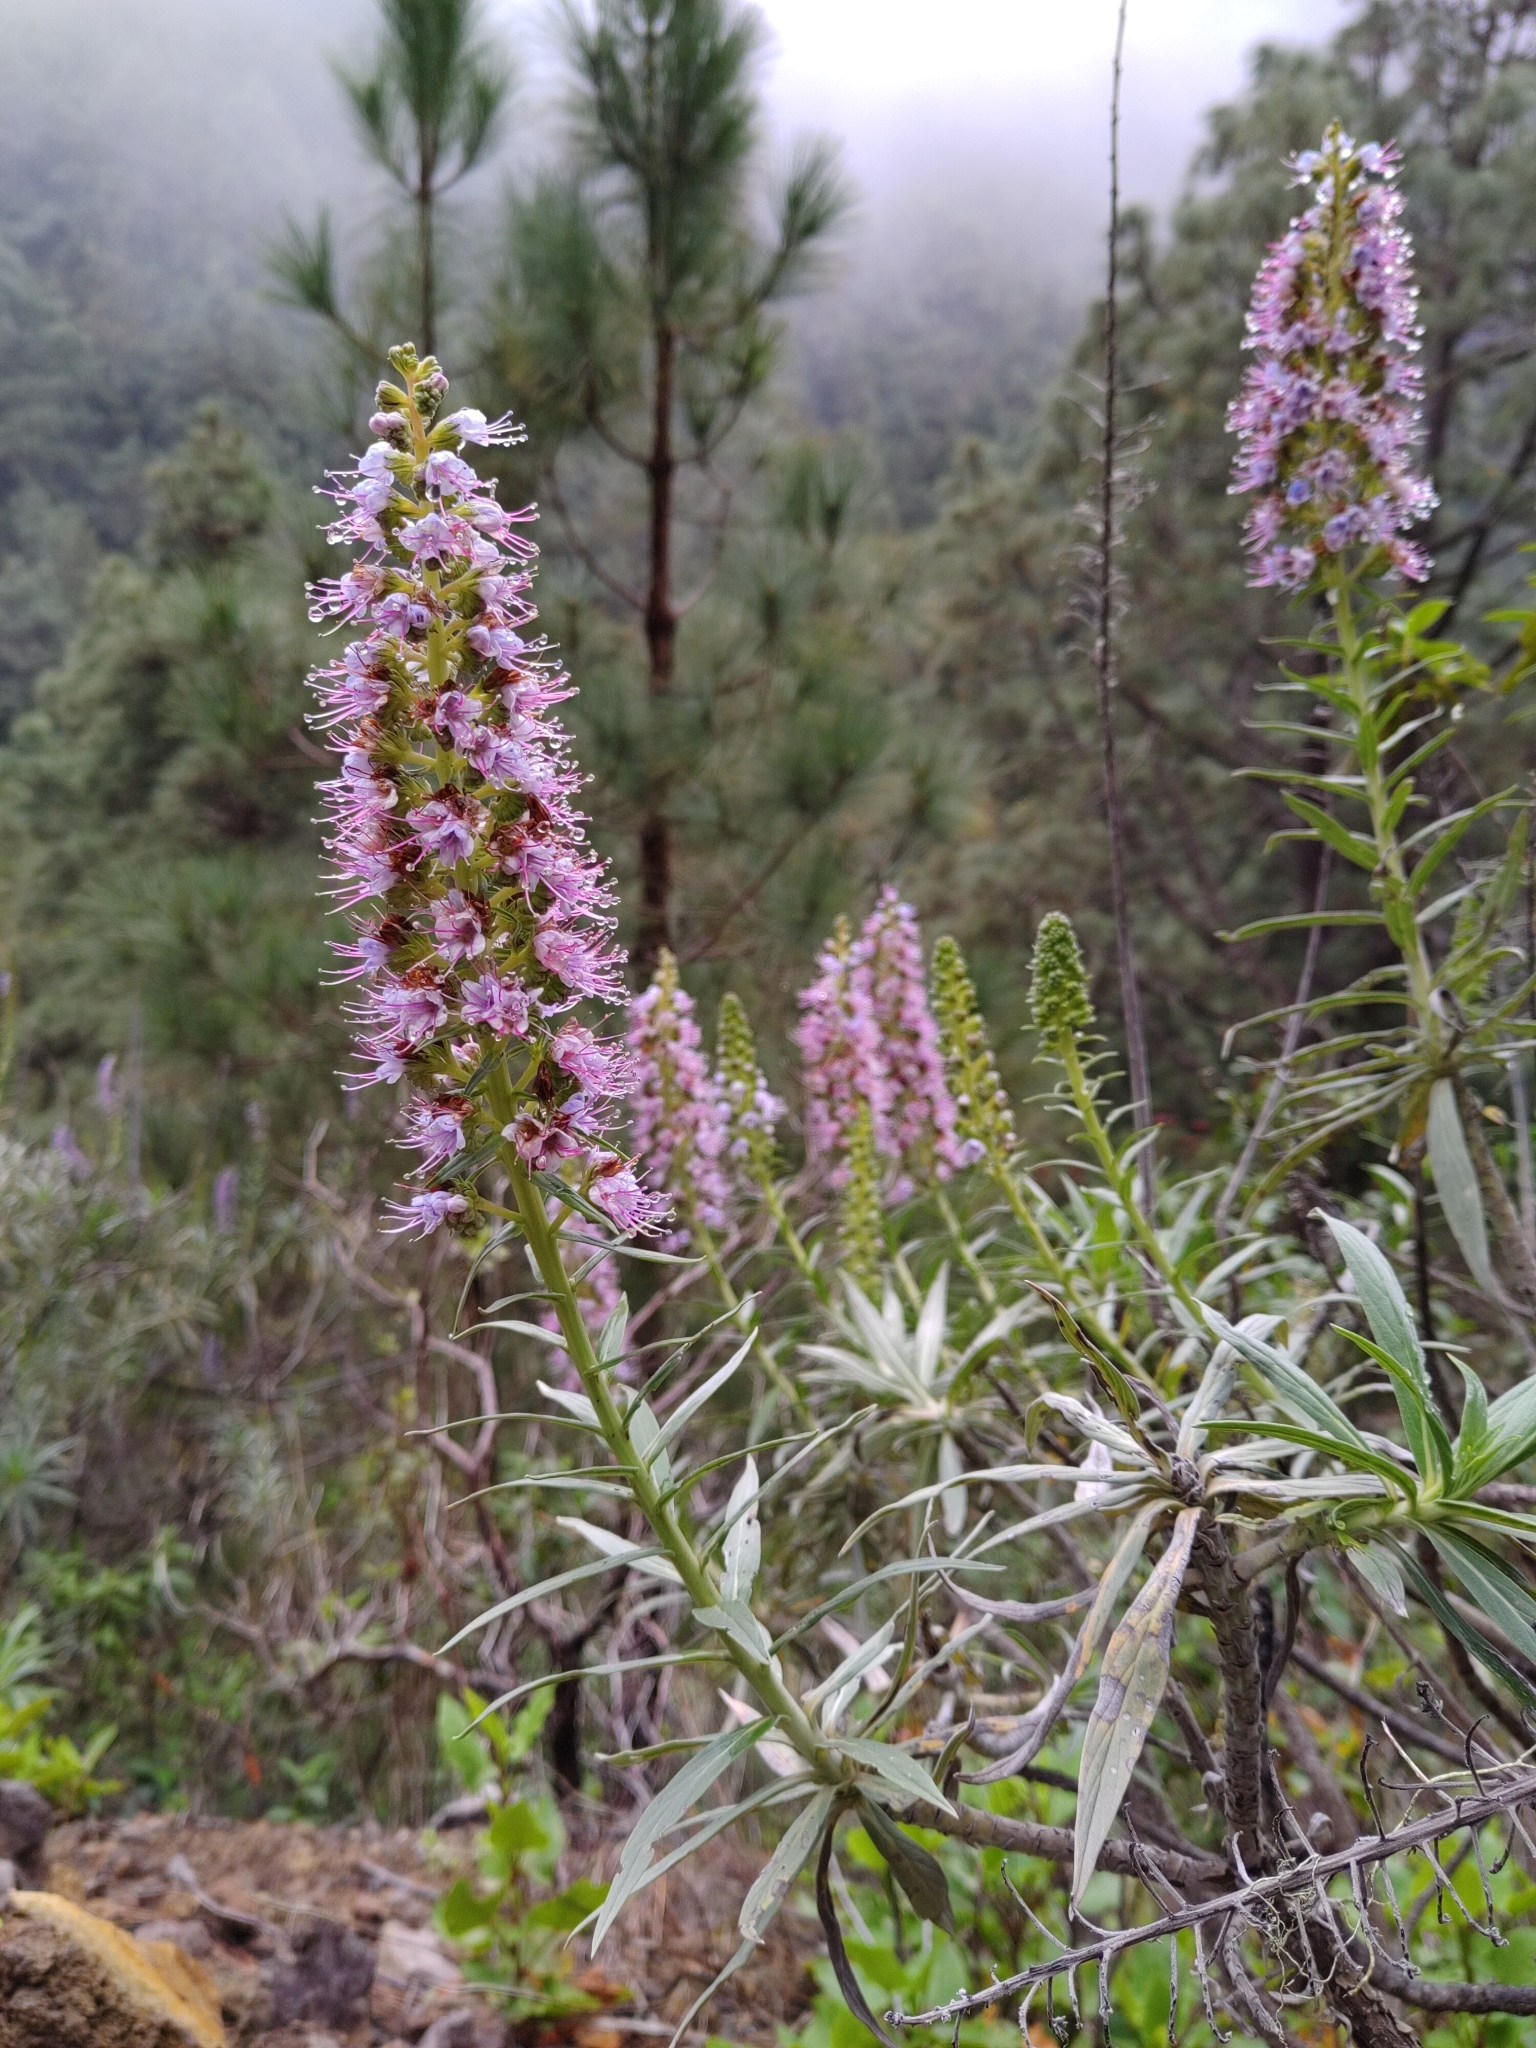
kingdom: Plantae
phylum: Tracheophyta
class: Magnoliopsida
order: Boraginales
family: Boraginaceae
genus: Echium
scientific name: Echium virescens
